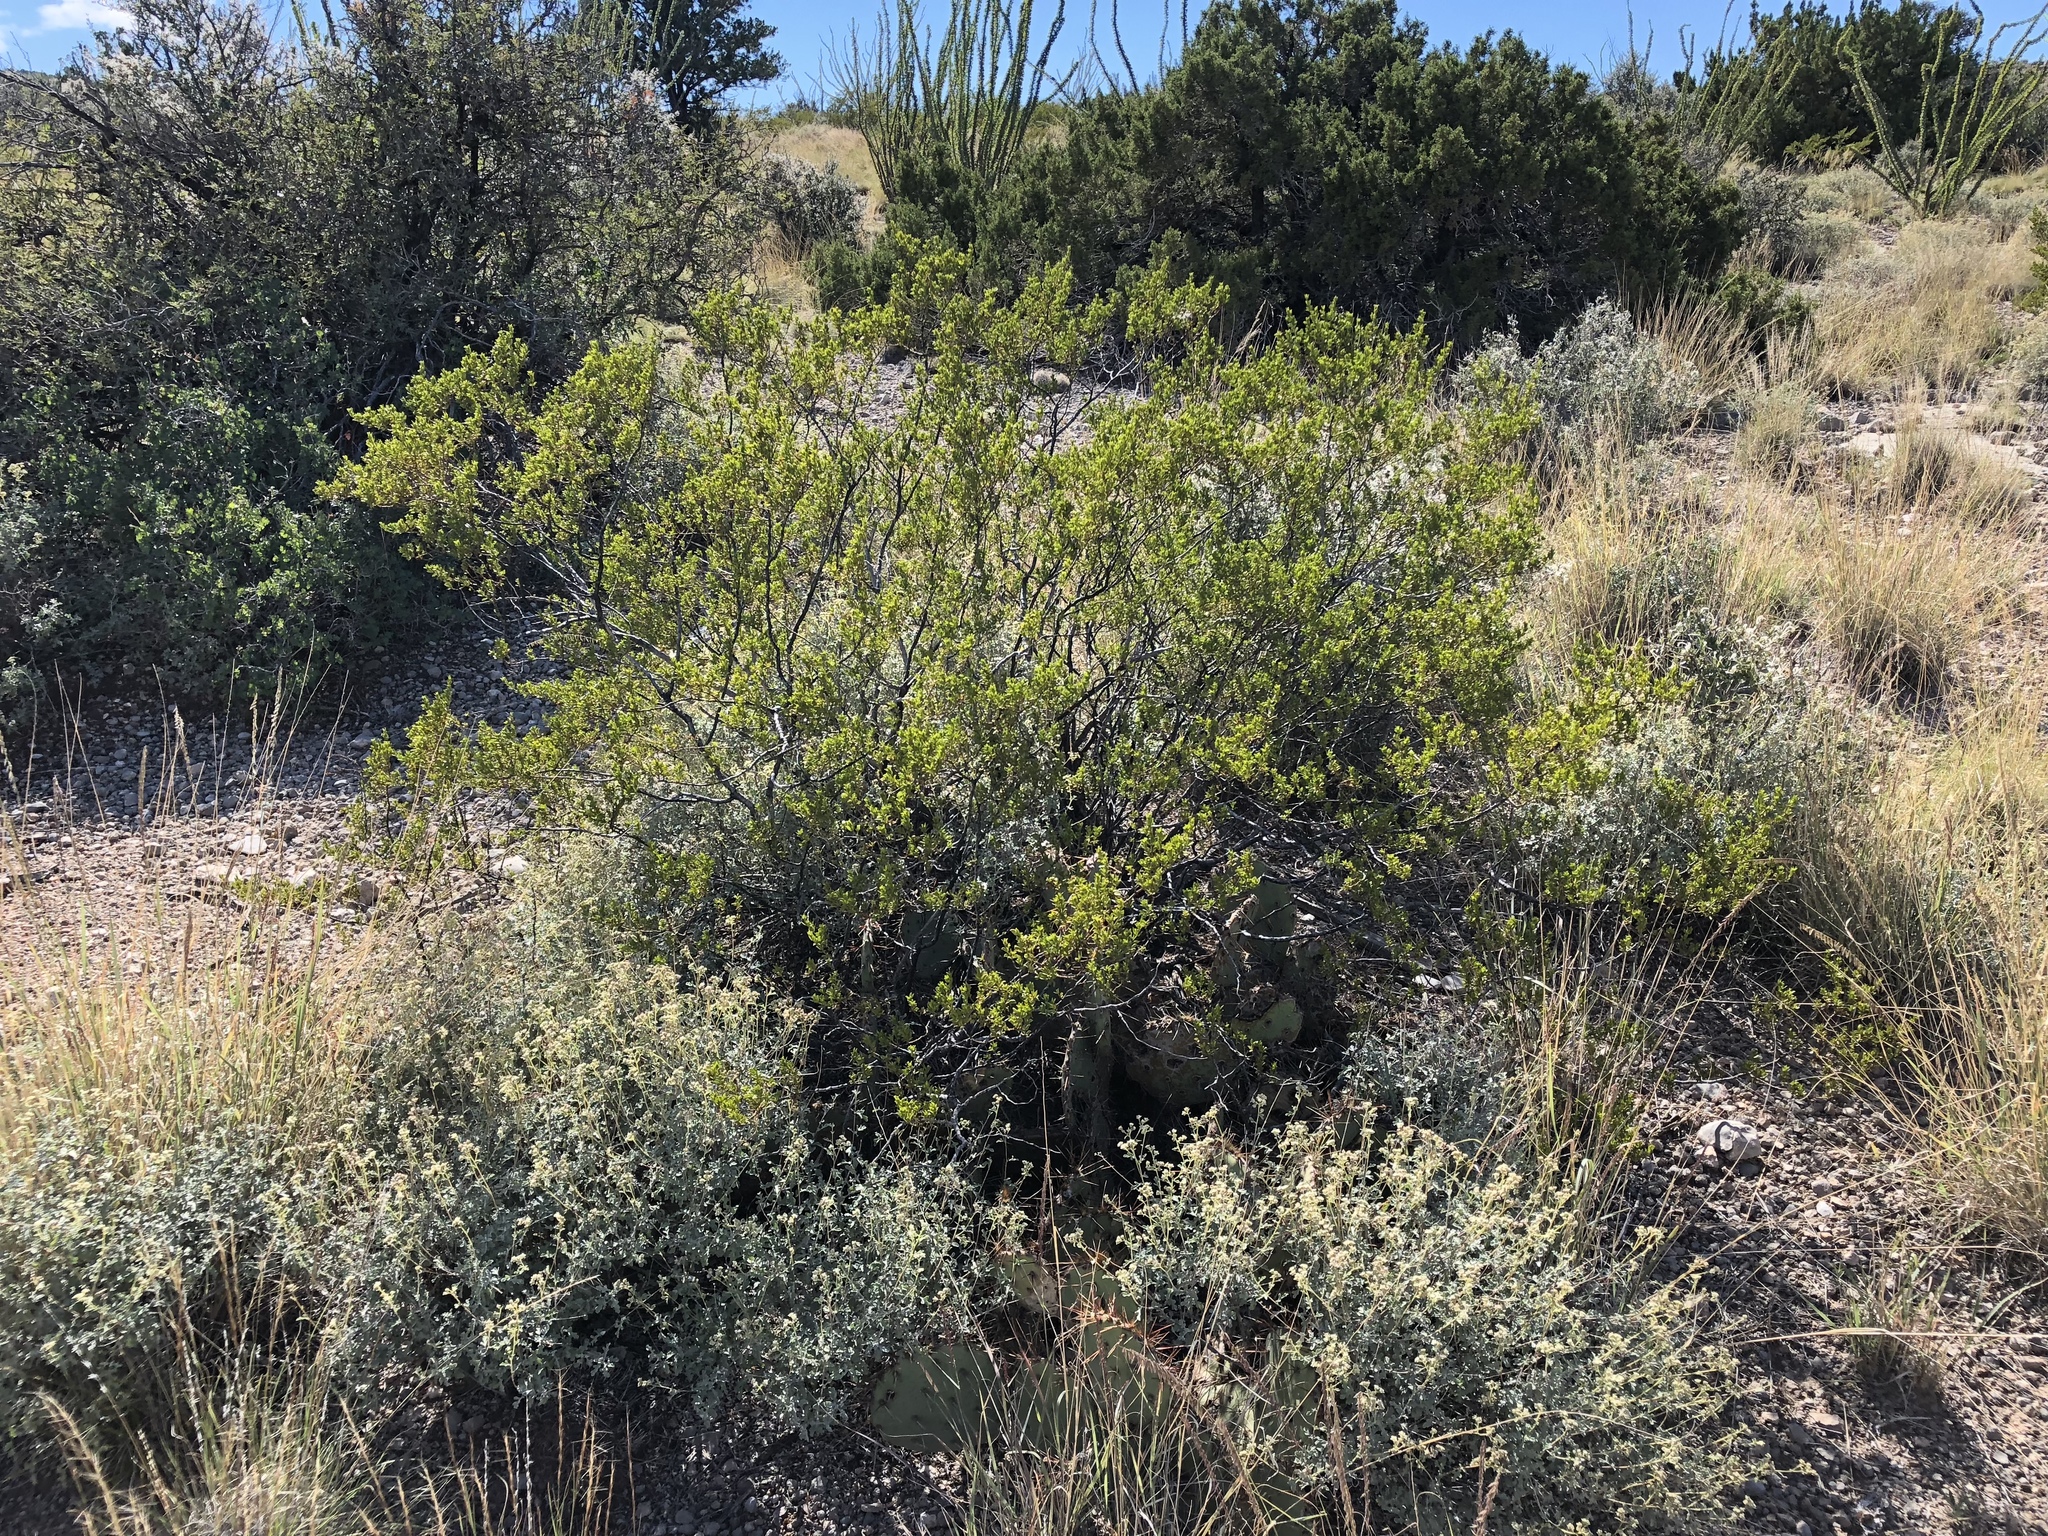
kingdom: Plantae
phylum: Tracheophyta
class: Magnoliopsida
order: Zygophyllales
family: Zygophyllaceae
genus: Larrea
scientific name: Larrea tridentata
